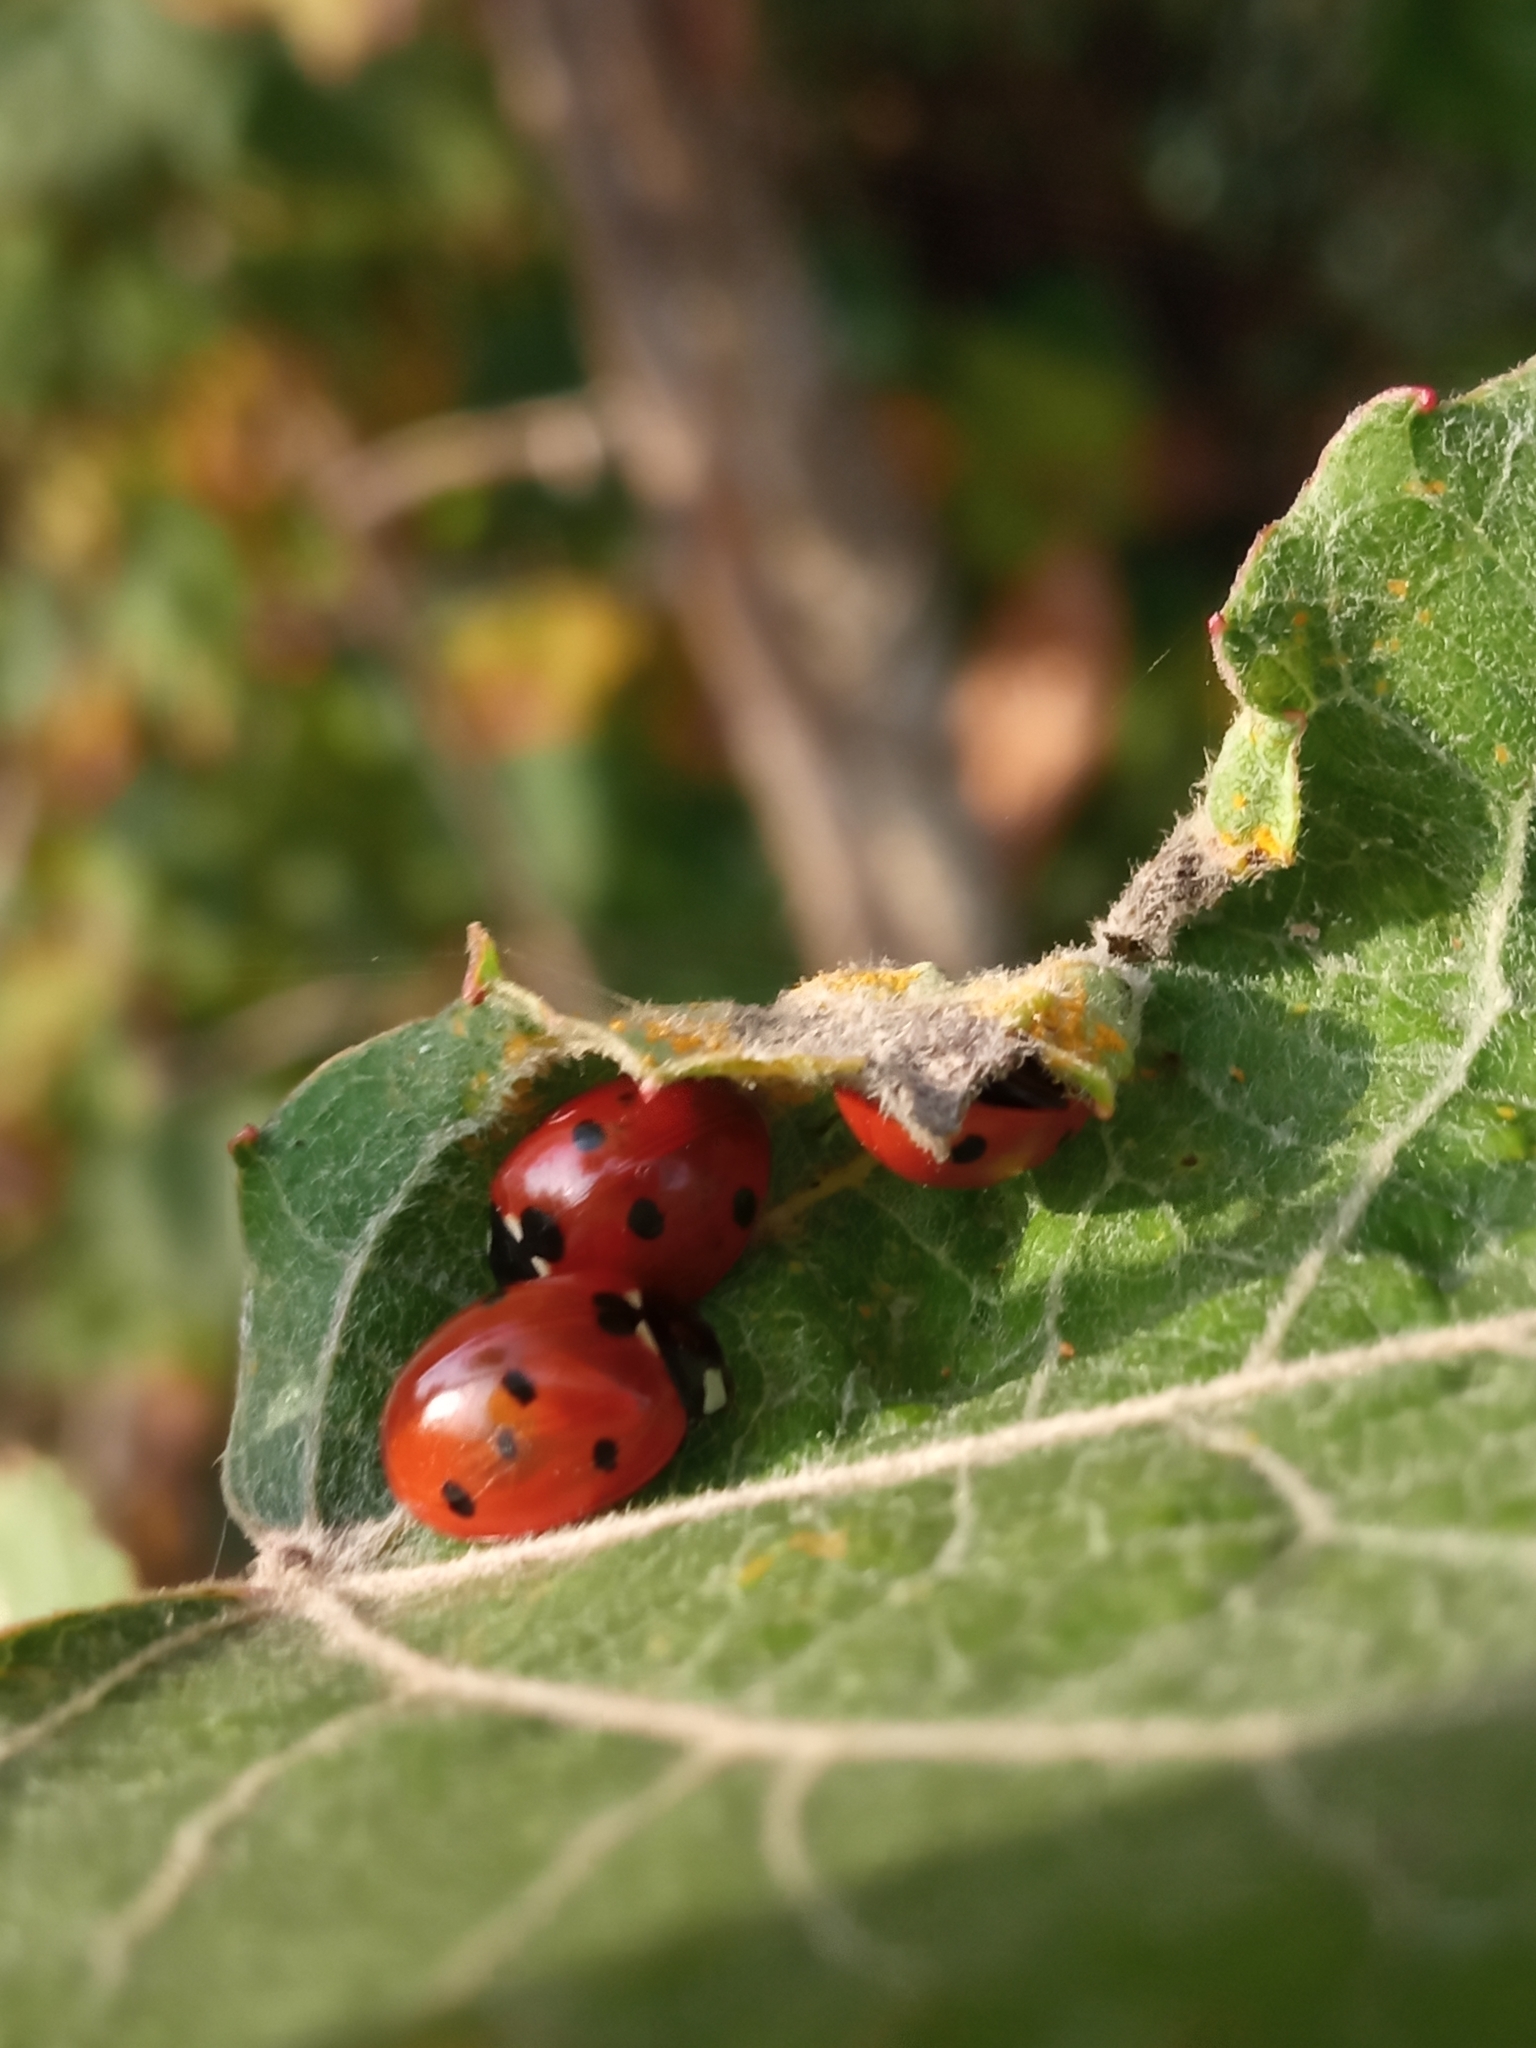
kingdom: Animalia
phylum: Arthropoda
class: Insecta
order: Coleoptera
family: Coccinellidae
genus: Coccinella
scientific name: Coccinella septempunctata
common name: Sevenspotted lady beetle
